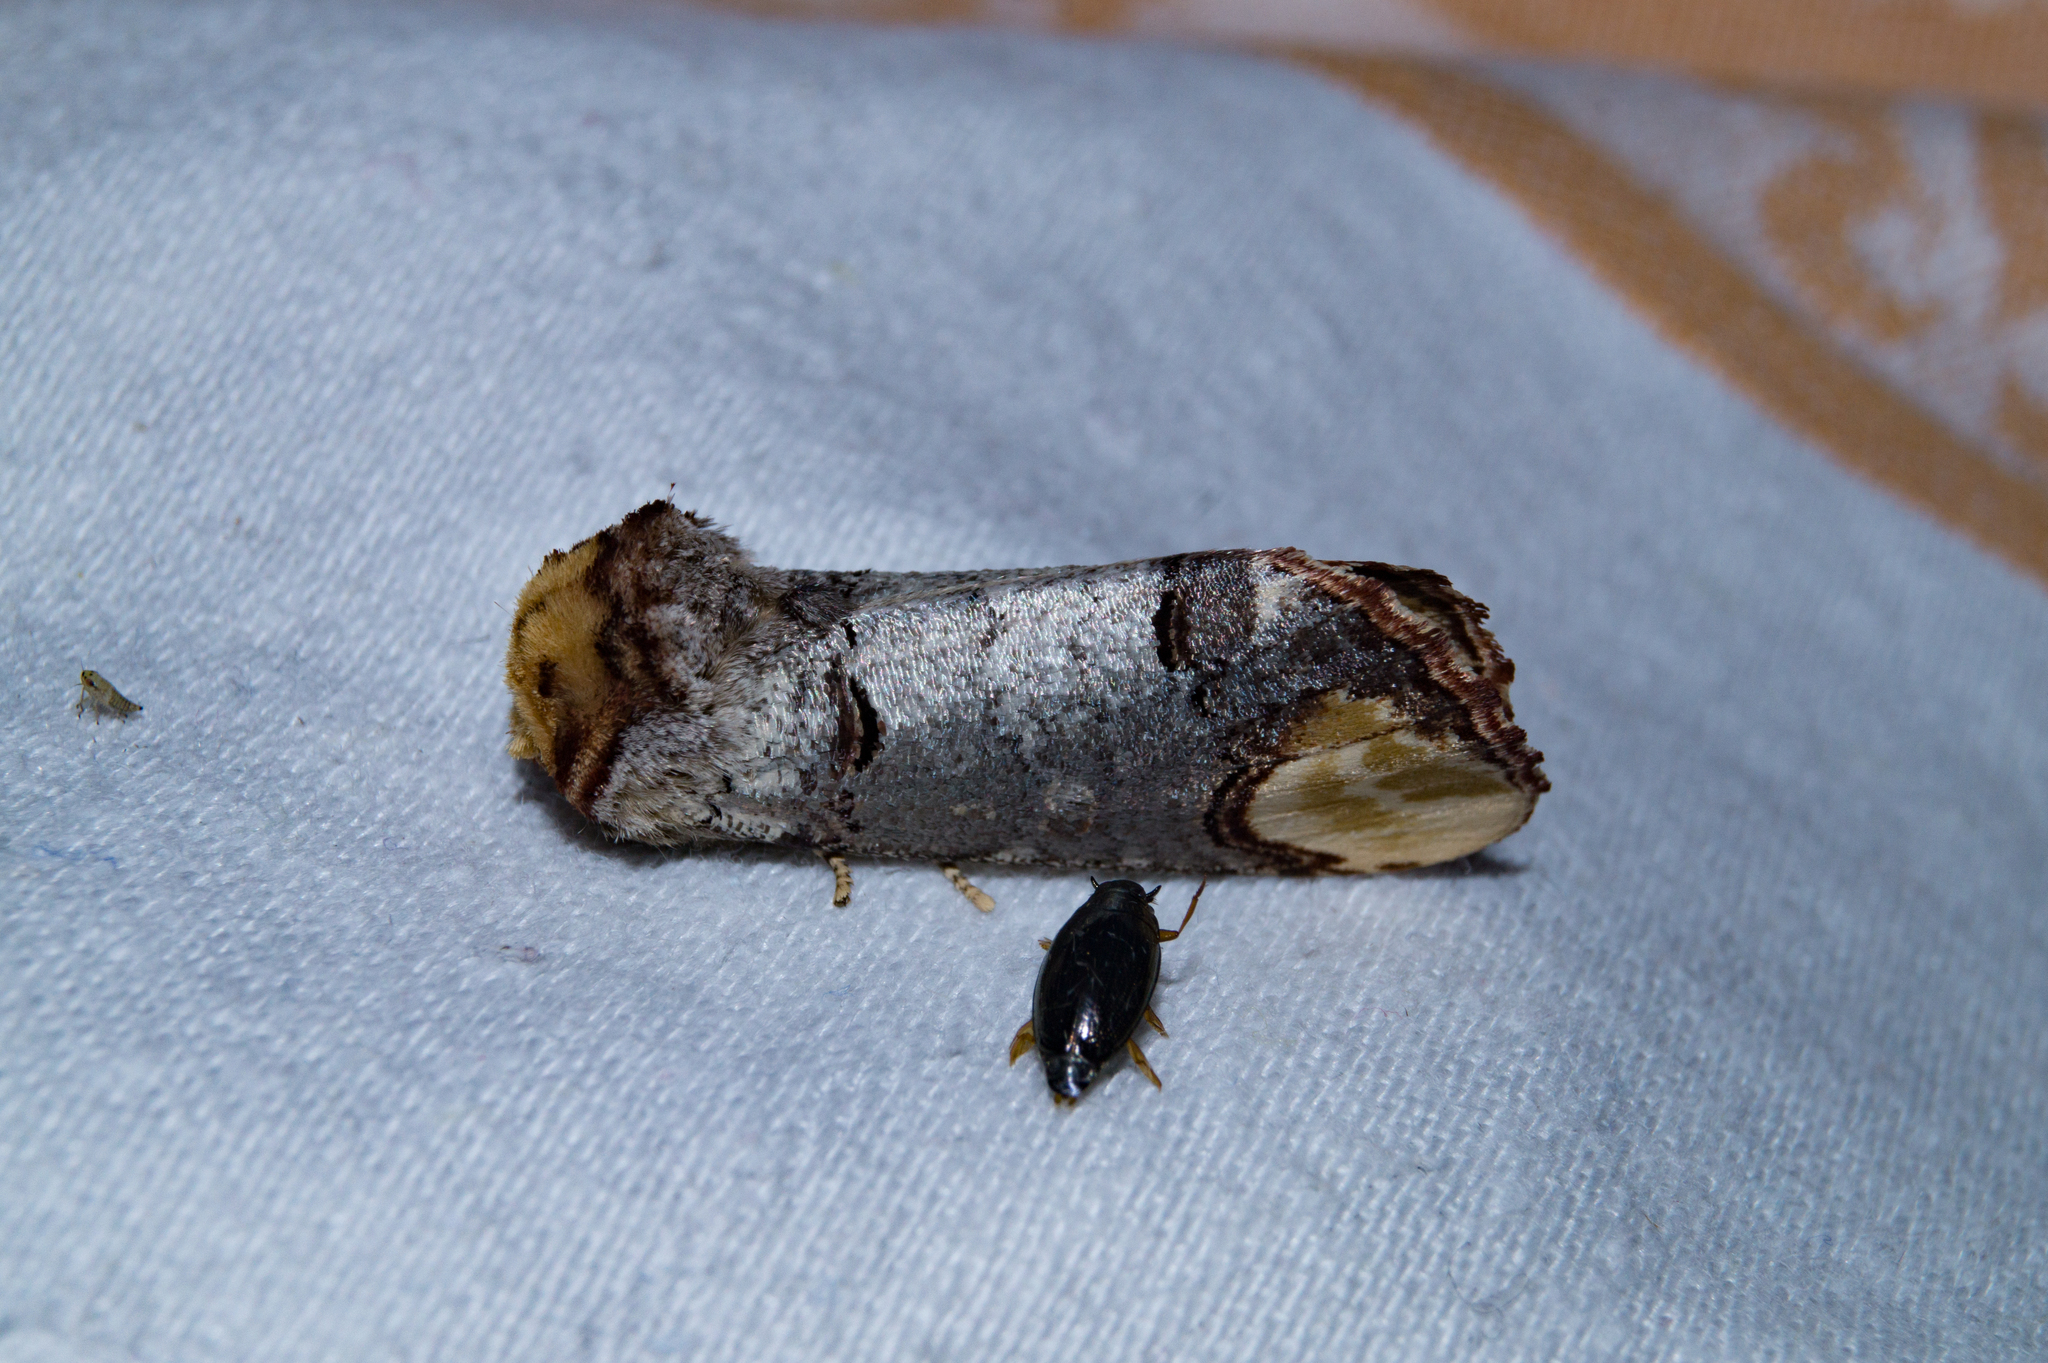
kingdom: Animalia
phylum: Arthropoda
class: Insecta
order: Lepidoptera
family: Notodontidae
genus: Phalera
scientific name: Phalera bucephala
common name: Buff-tip
